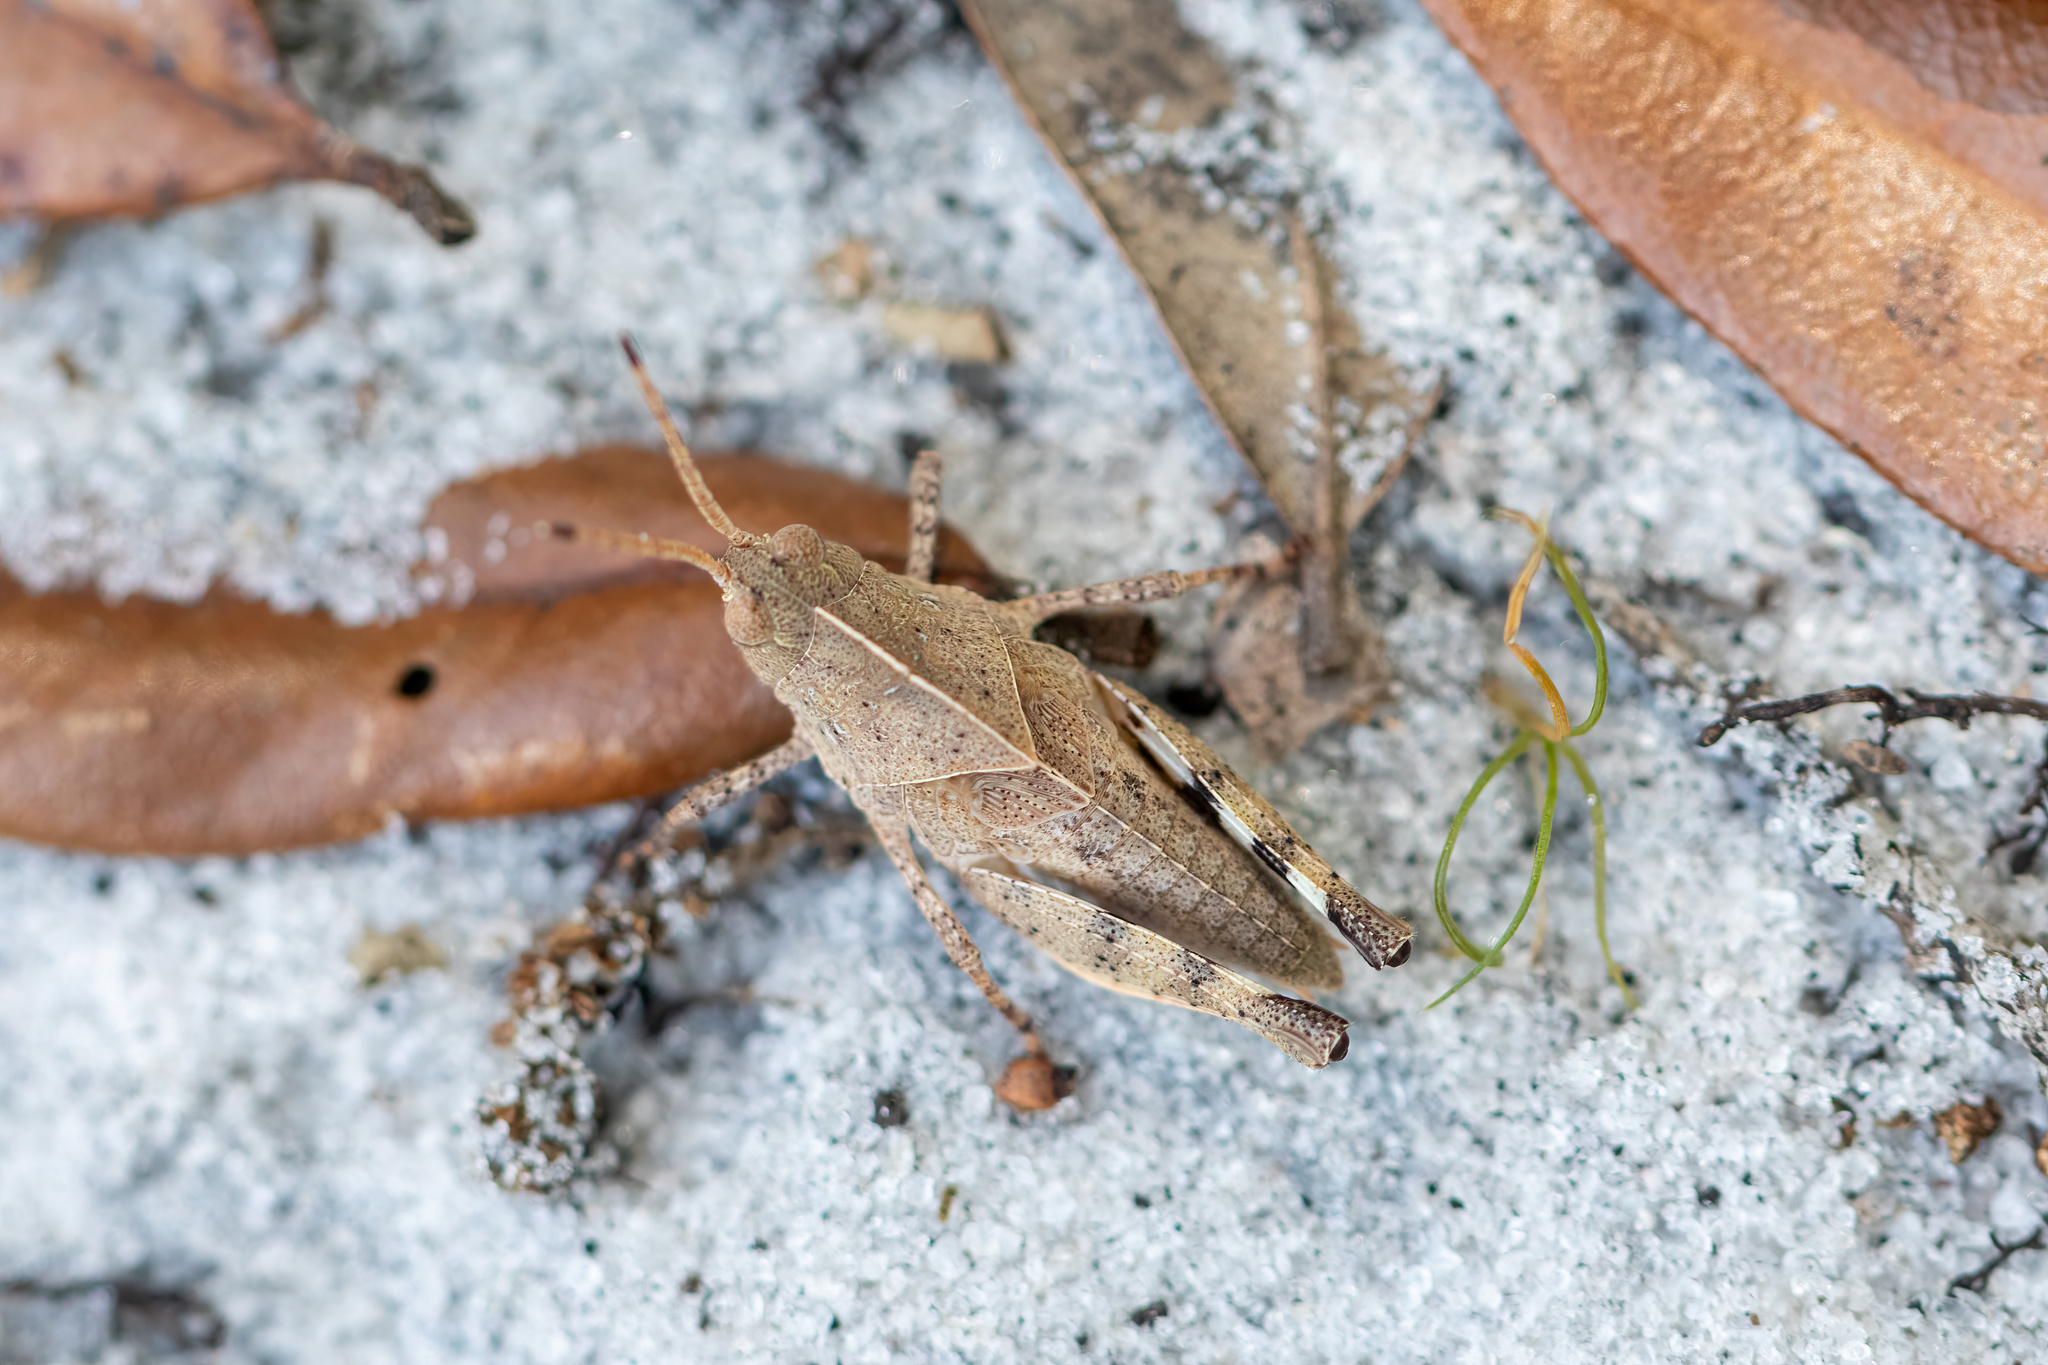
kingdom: Animalia
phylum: Arthropoda
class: Insecta
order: Orthoptera
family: Acrididae
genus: Spharagemon
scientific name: Spharagemon crepitans
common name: Crepitating grasshopper
